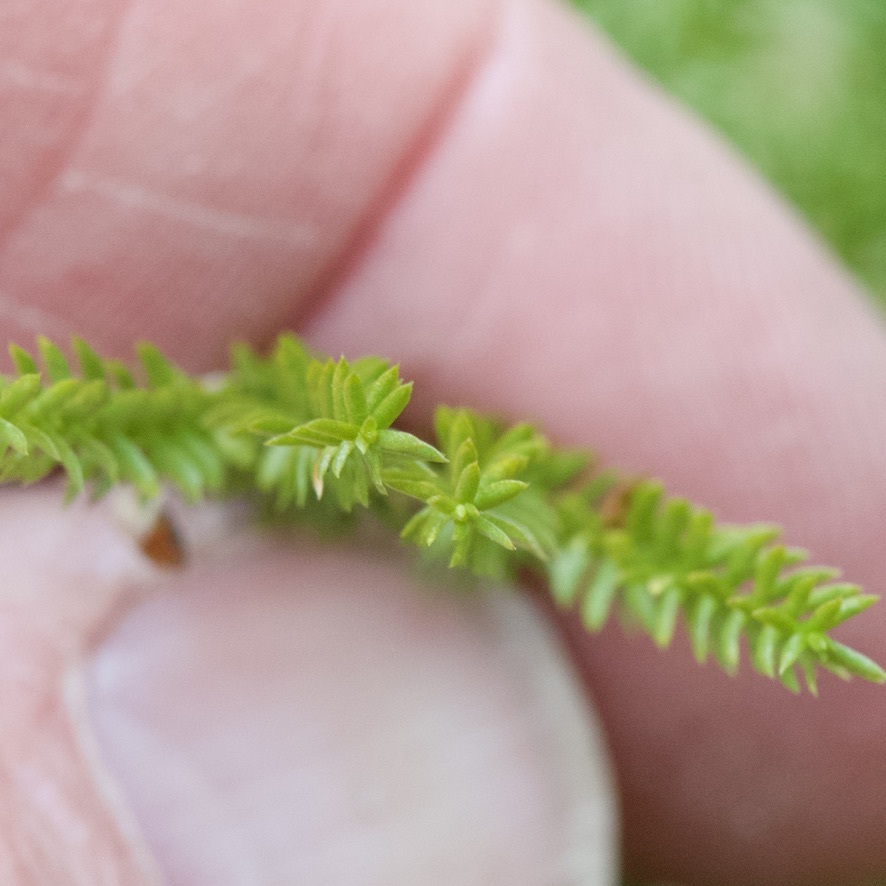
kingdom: Plantae
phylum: Tracheophyta
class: Lycopodiopsida
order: Lycopodiales
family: Lycopodiaceae
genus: Dendrolycopodium
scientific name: Dendrolycopodium dendroideum
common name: Northern tree-clubmoss
